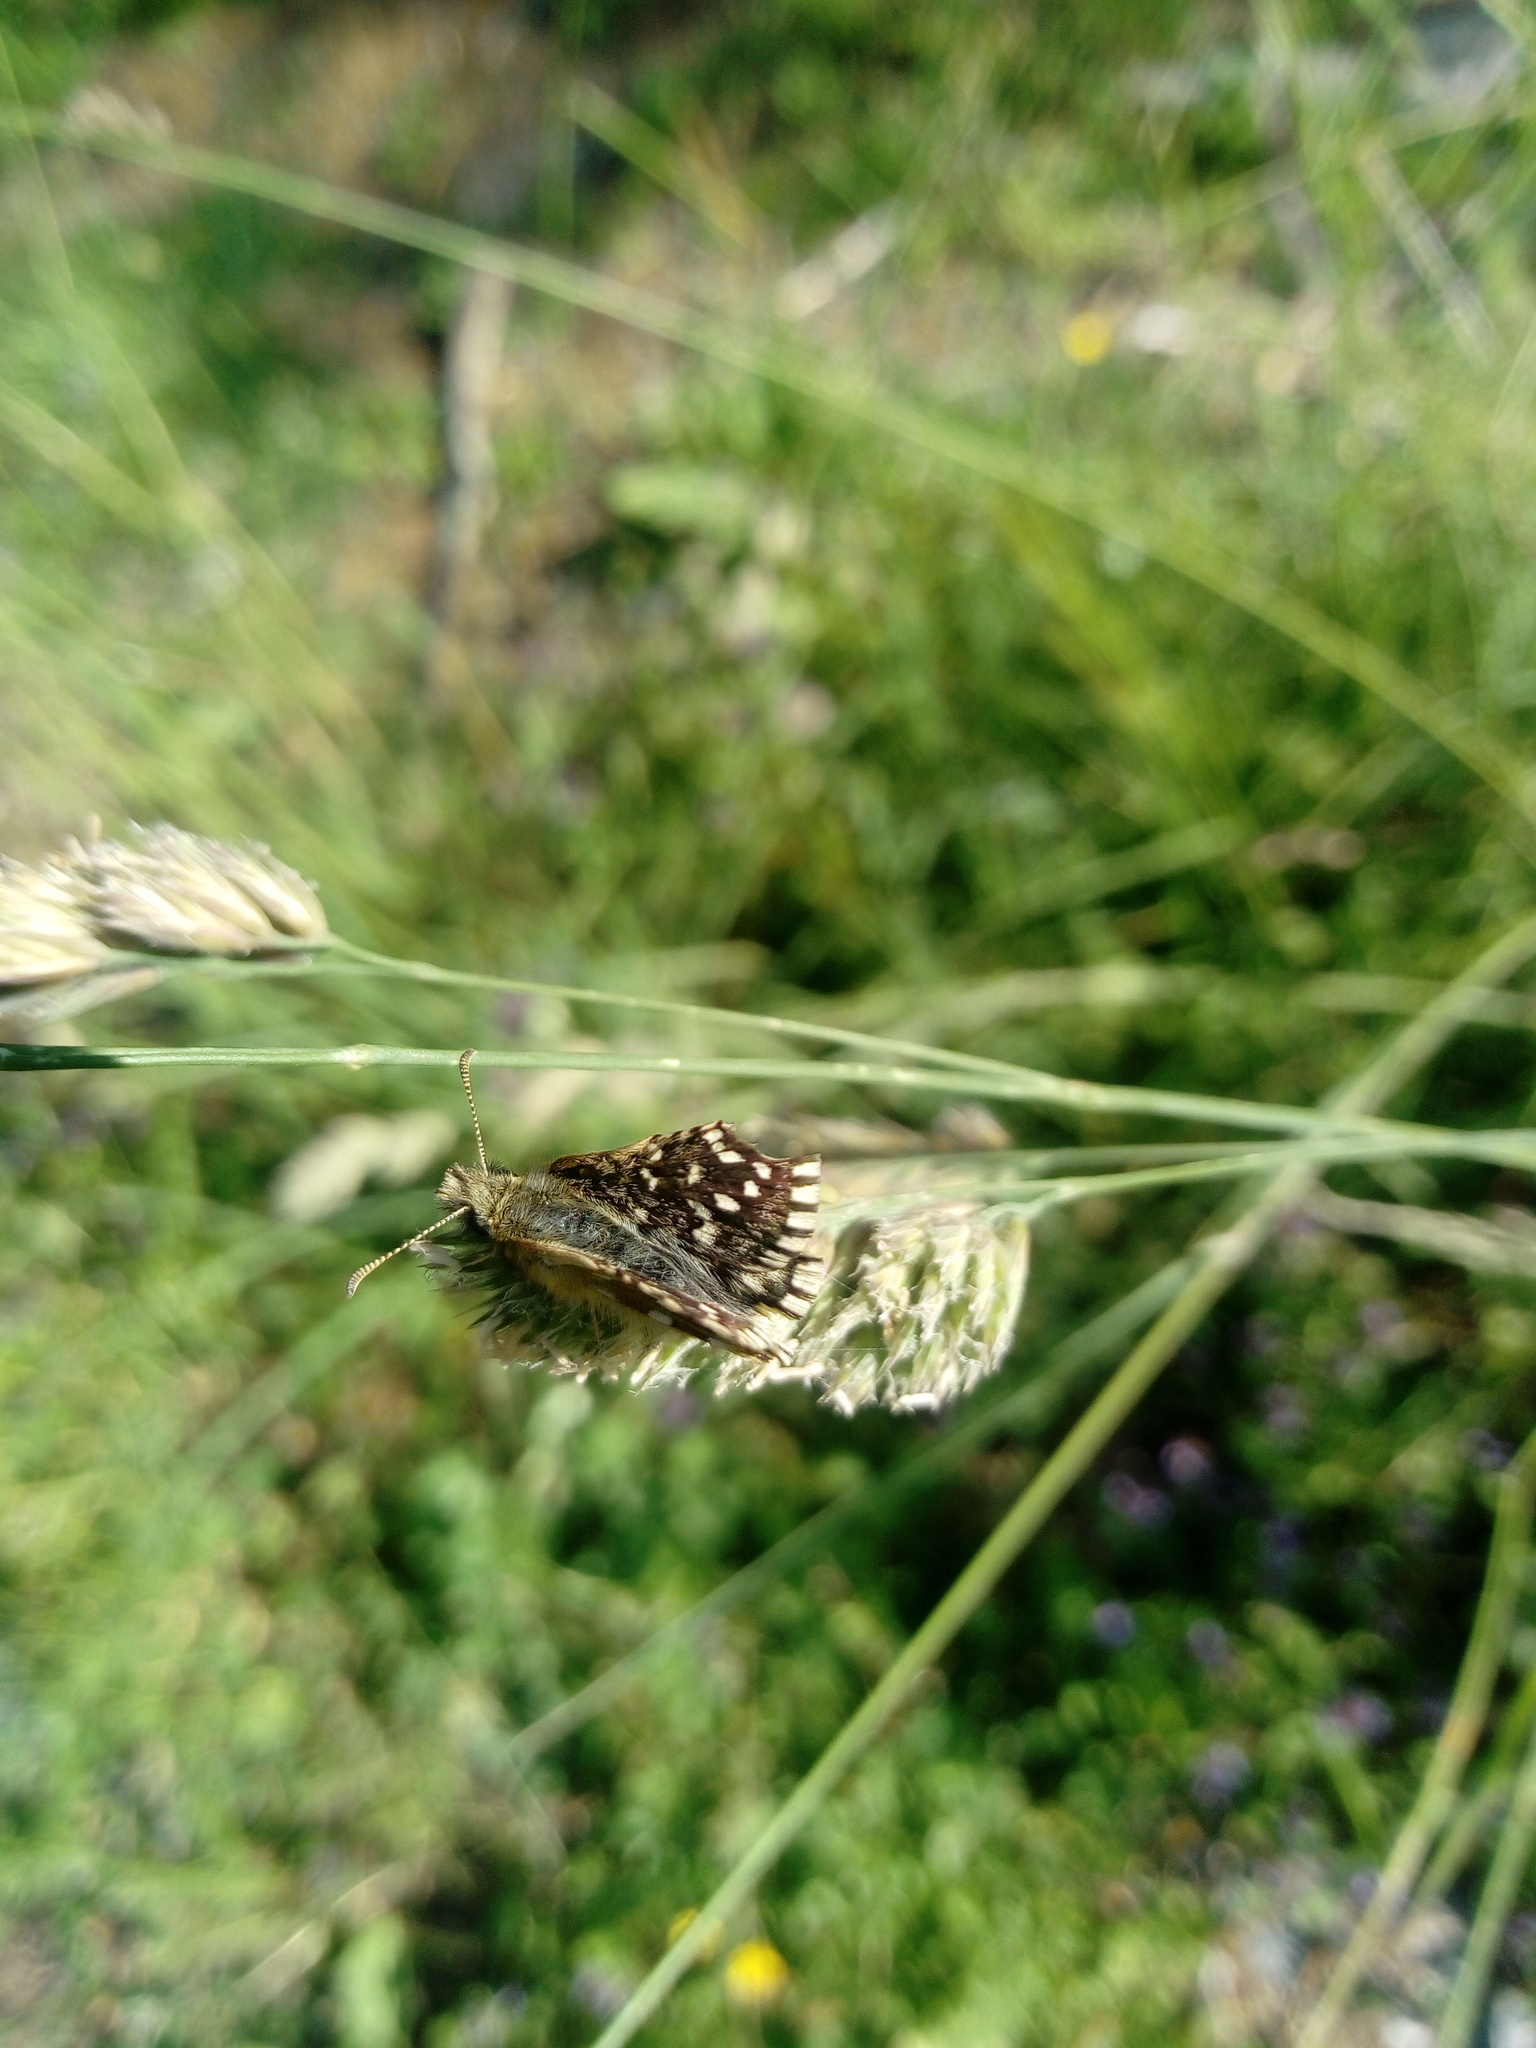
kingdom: Animalia
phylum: Arthropoda
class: Insecta
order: Lepidoptera
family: Hesperiidae
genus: Pyrgus
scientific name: Pyrgus malvoides
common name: Southern grizzled skipper
